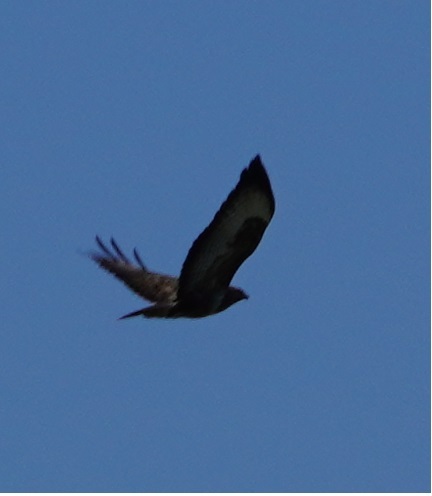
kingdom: Animalia
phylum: Chordata
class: Aves
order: Accipitriformes
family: Accipitridae
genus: Buteo
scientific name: Buteo buteo
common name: Common buzzard
